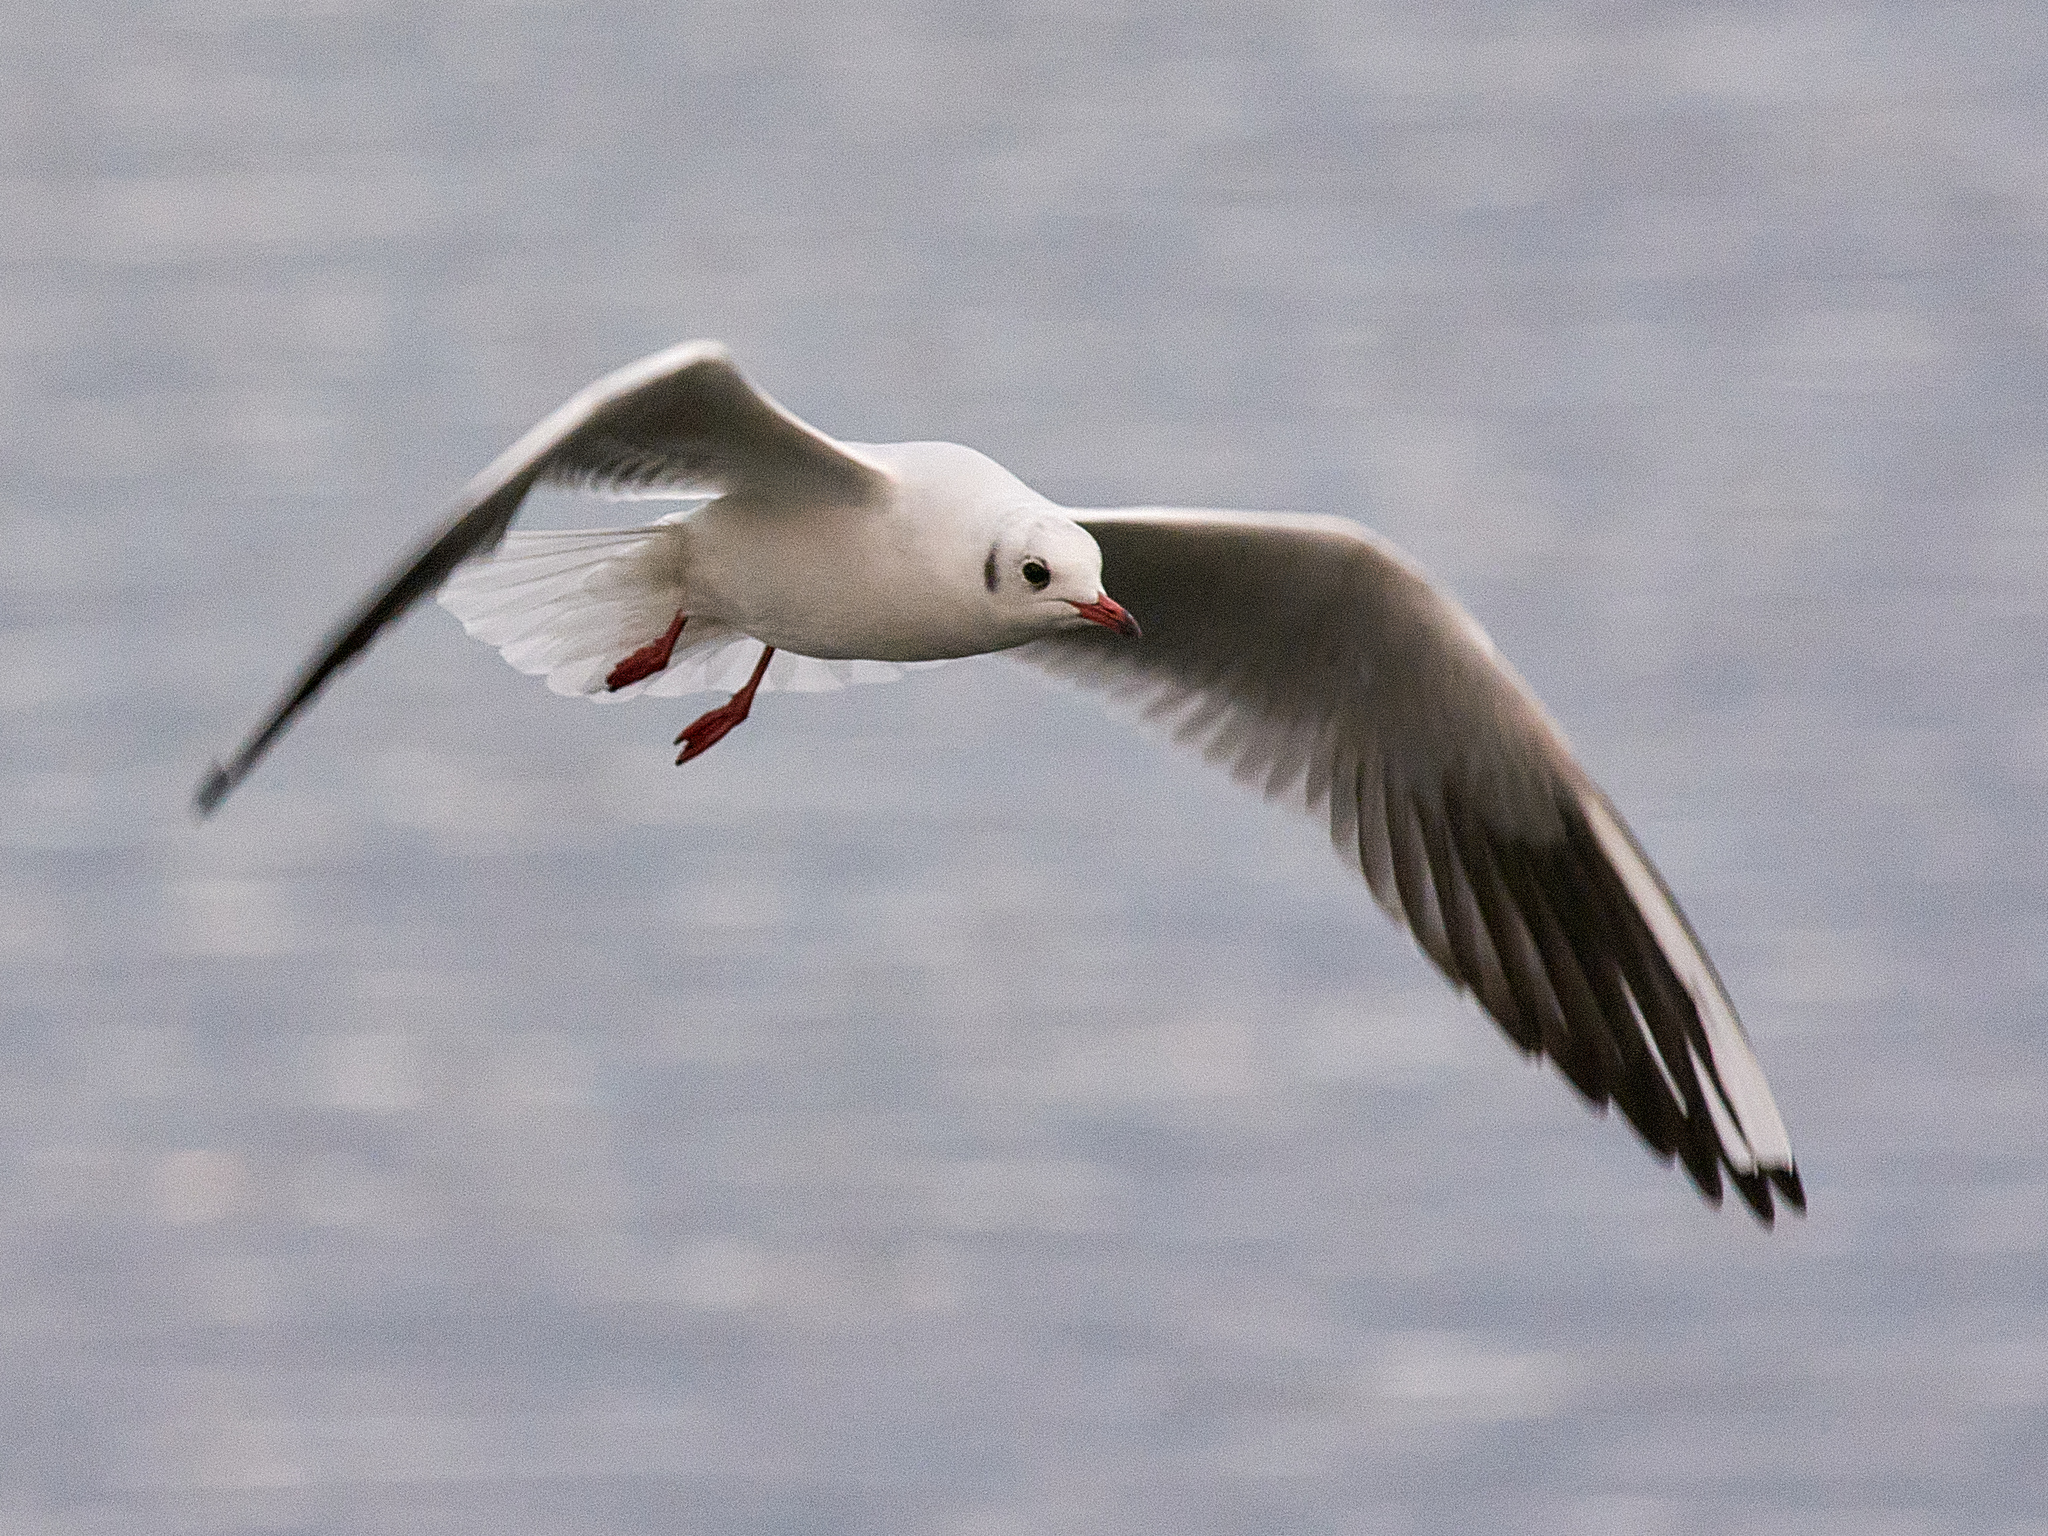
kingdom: Animalia
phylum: Chordata
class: Aves
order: Charadriiformes
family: Laridae
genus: Chroicocephalus
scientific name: Chroicocephalus ridibundus
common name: Black-headed gull
